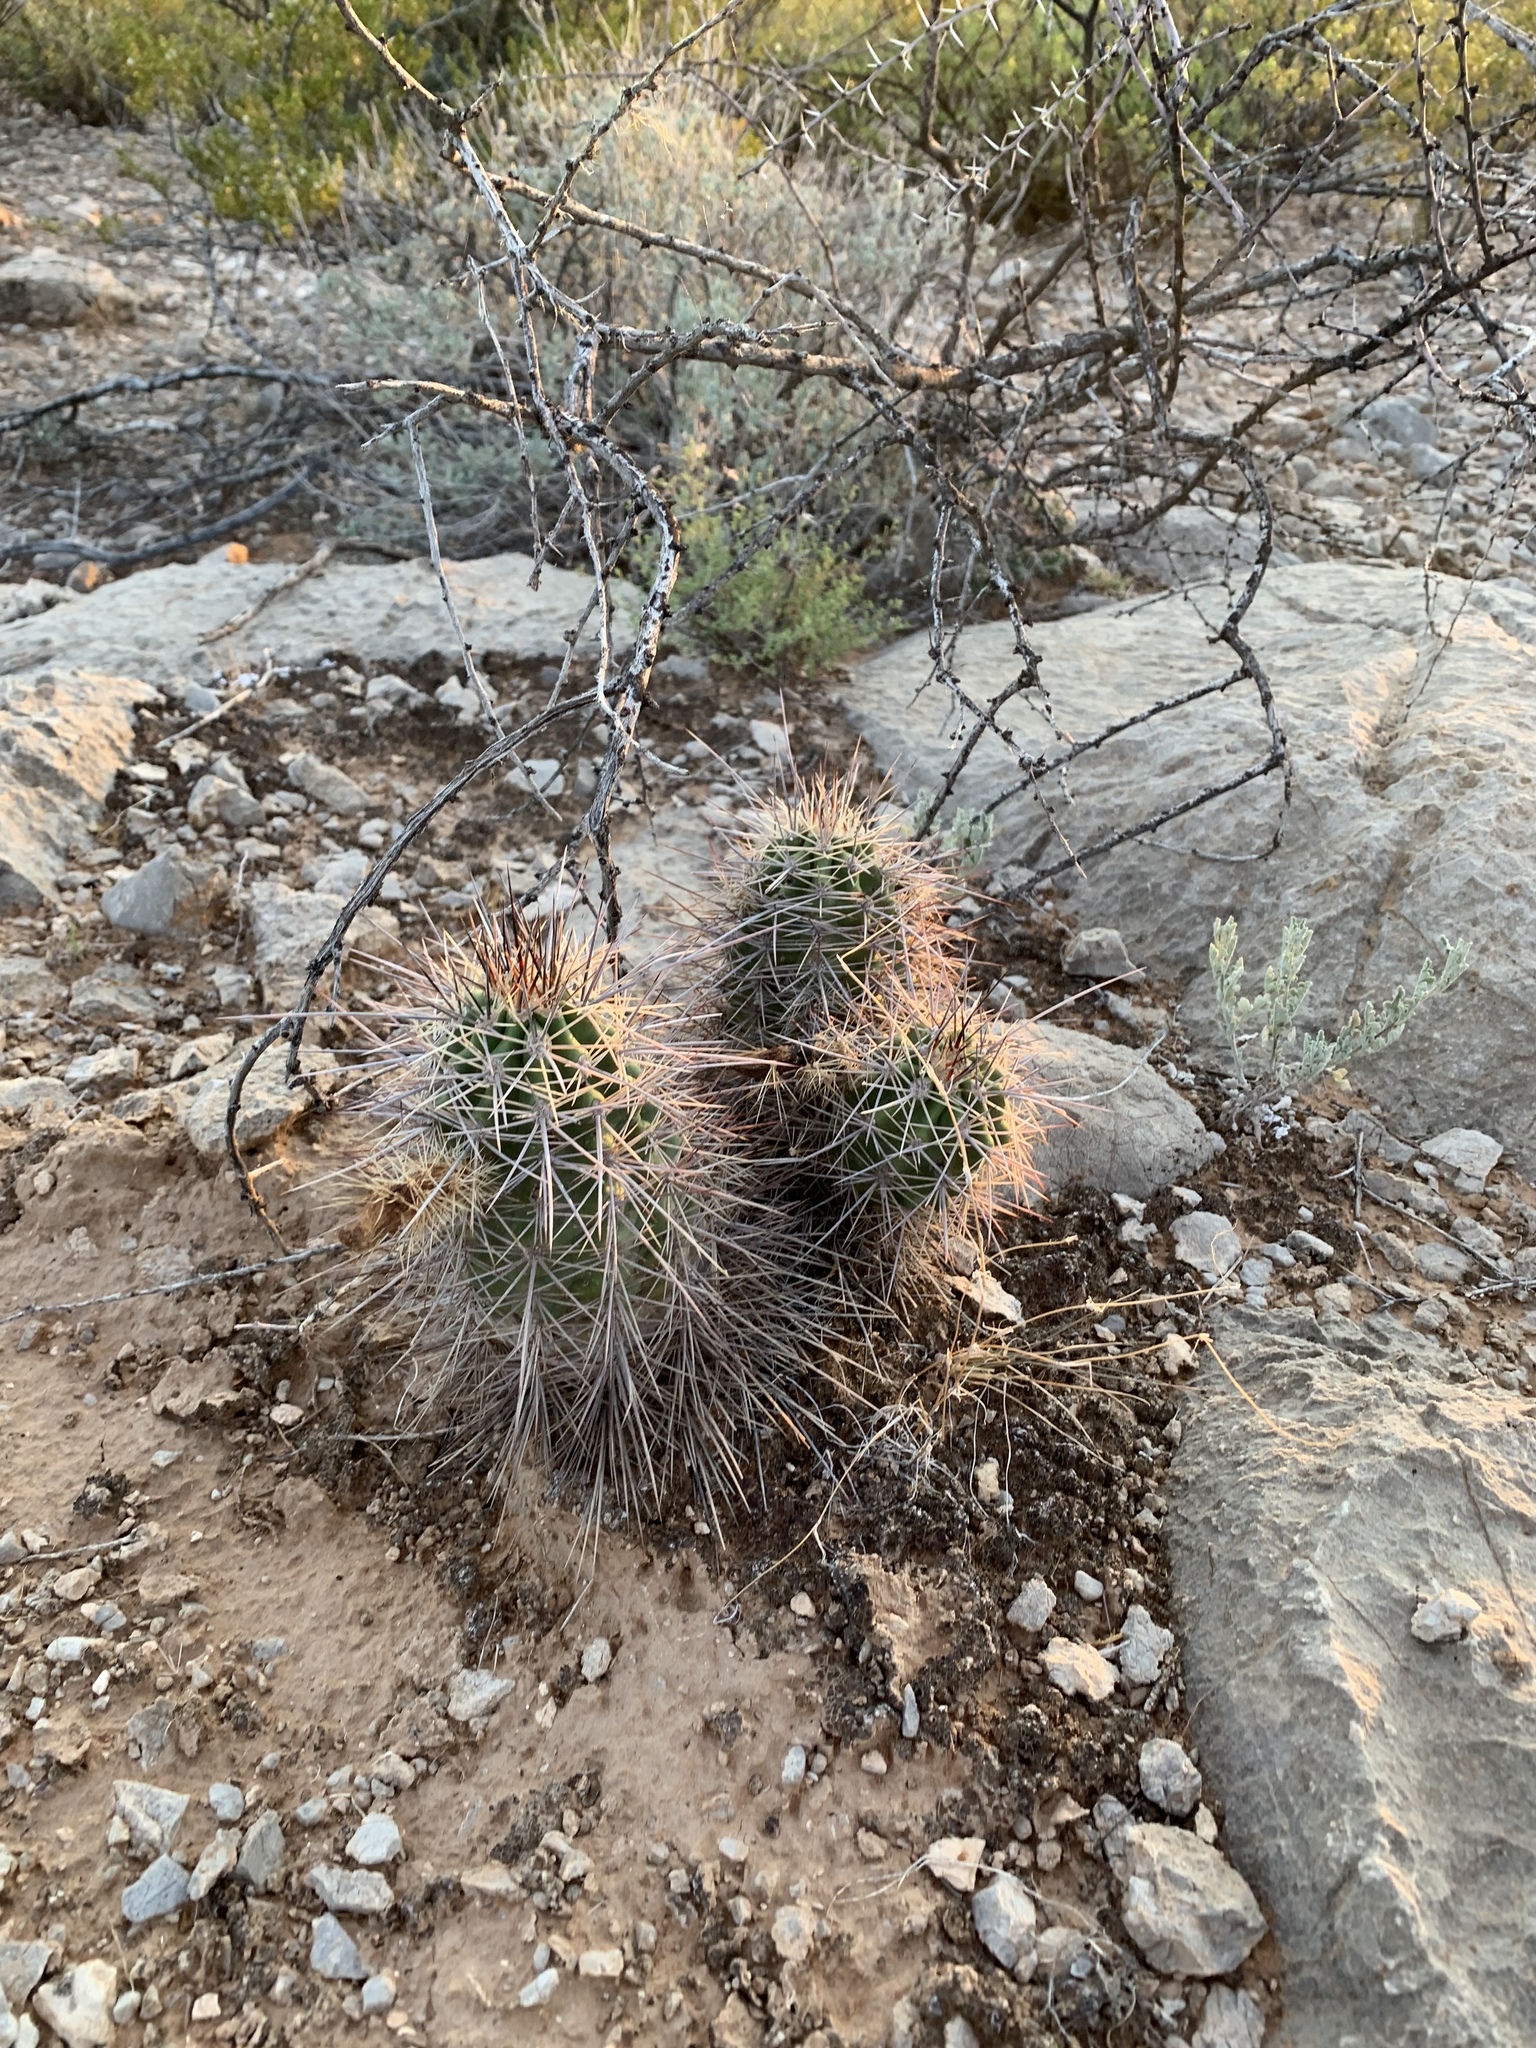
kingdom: Plantae
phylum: Tracheophyta
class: Magnoliopsida
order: Caryophyllales
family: Cactaceae
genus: Echinocereus
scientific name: Echinocereus coccineus
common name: Scarlet hedgehog cactus
